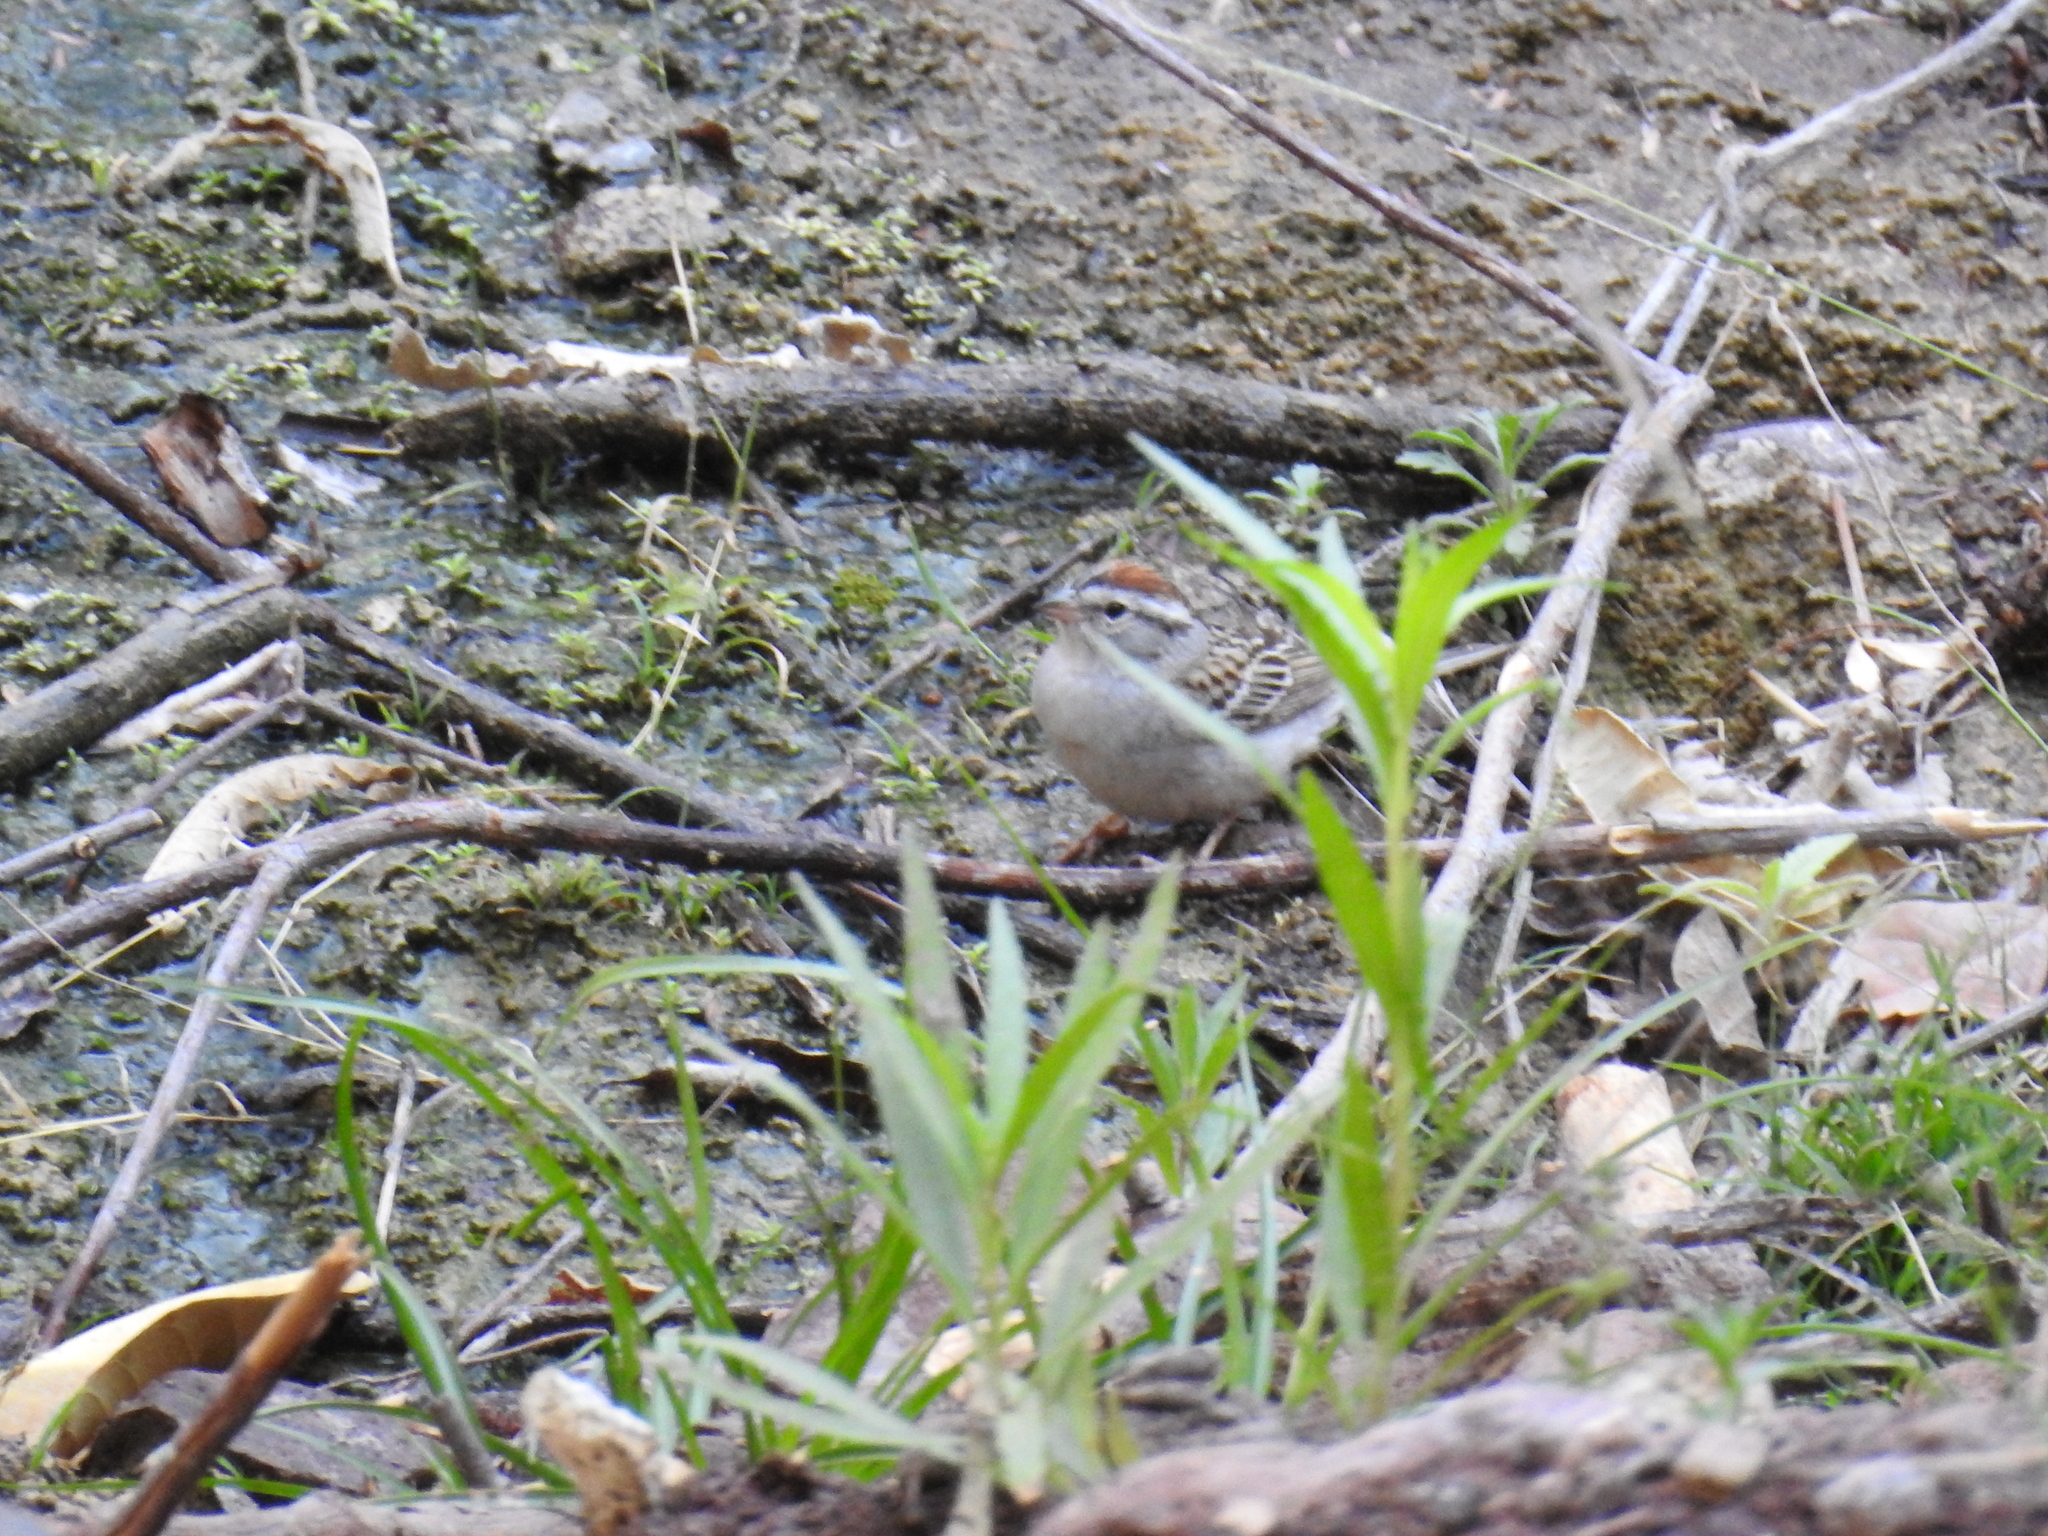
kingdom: Animalia
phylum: Chordata
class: Aves
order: Passeriformes
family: Passerellidae
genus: Spizella
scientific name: Spizella passerina
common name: Chipping sparrow
